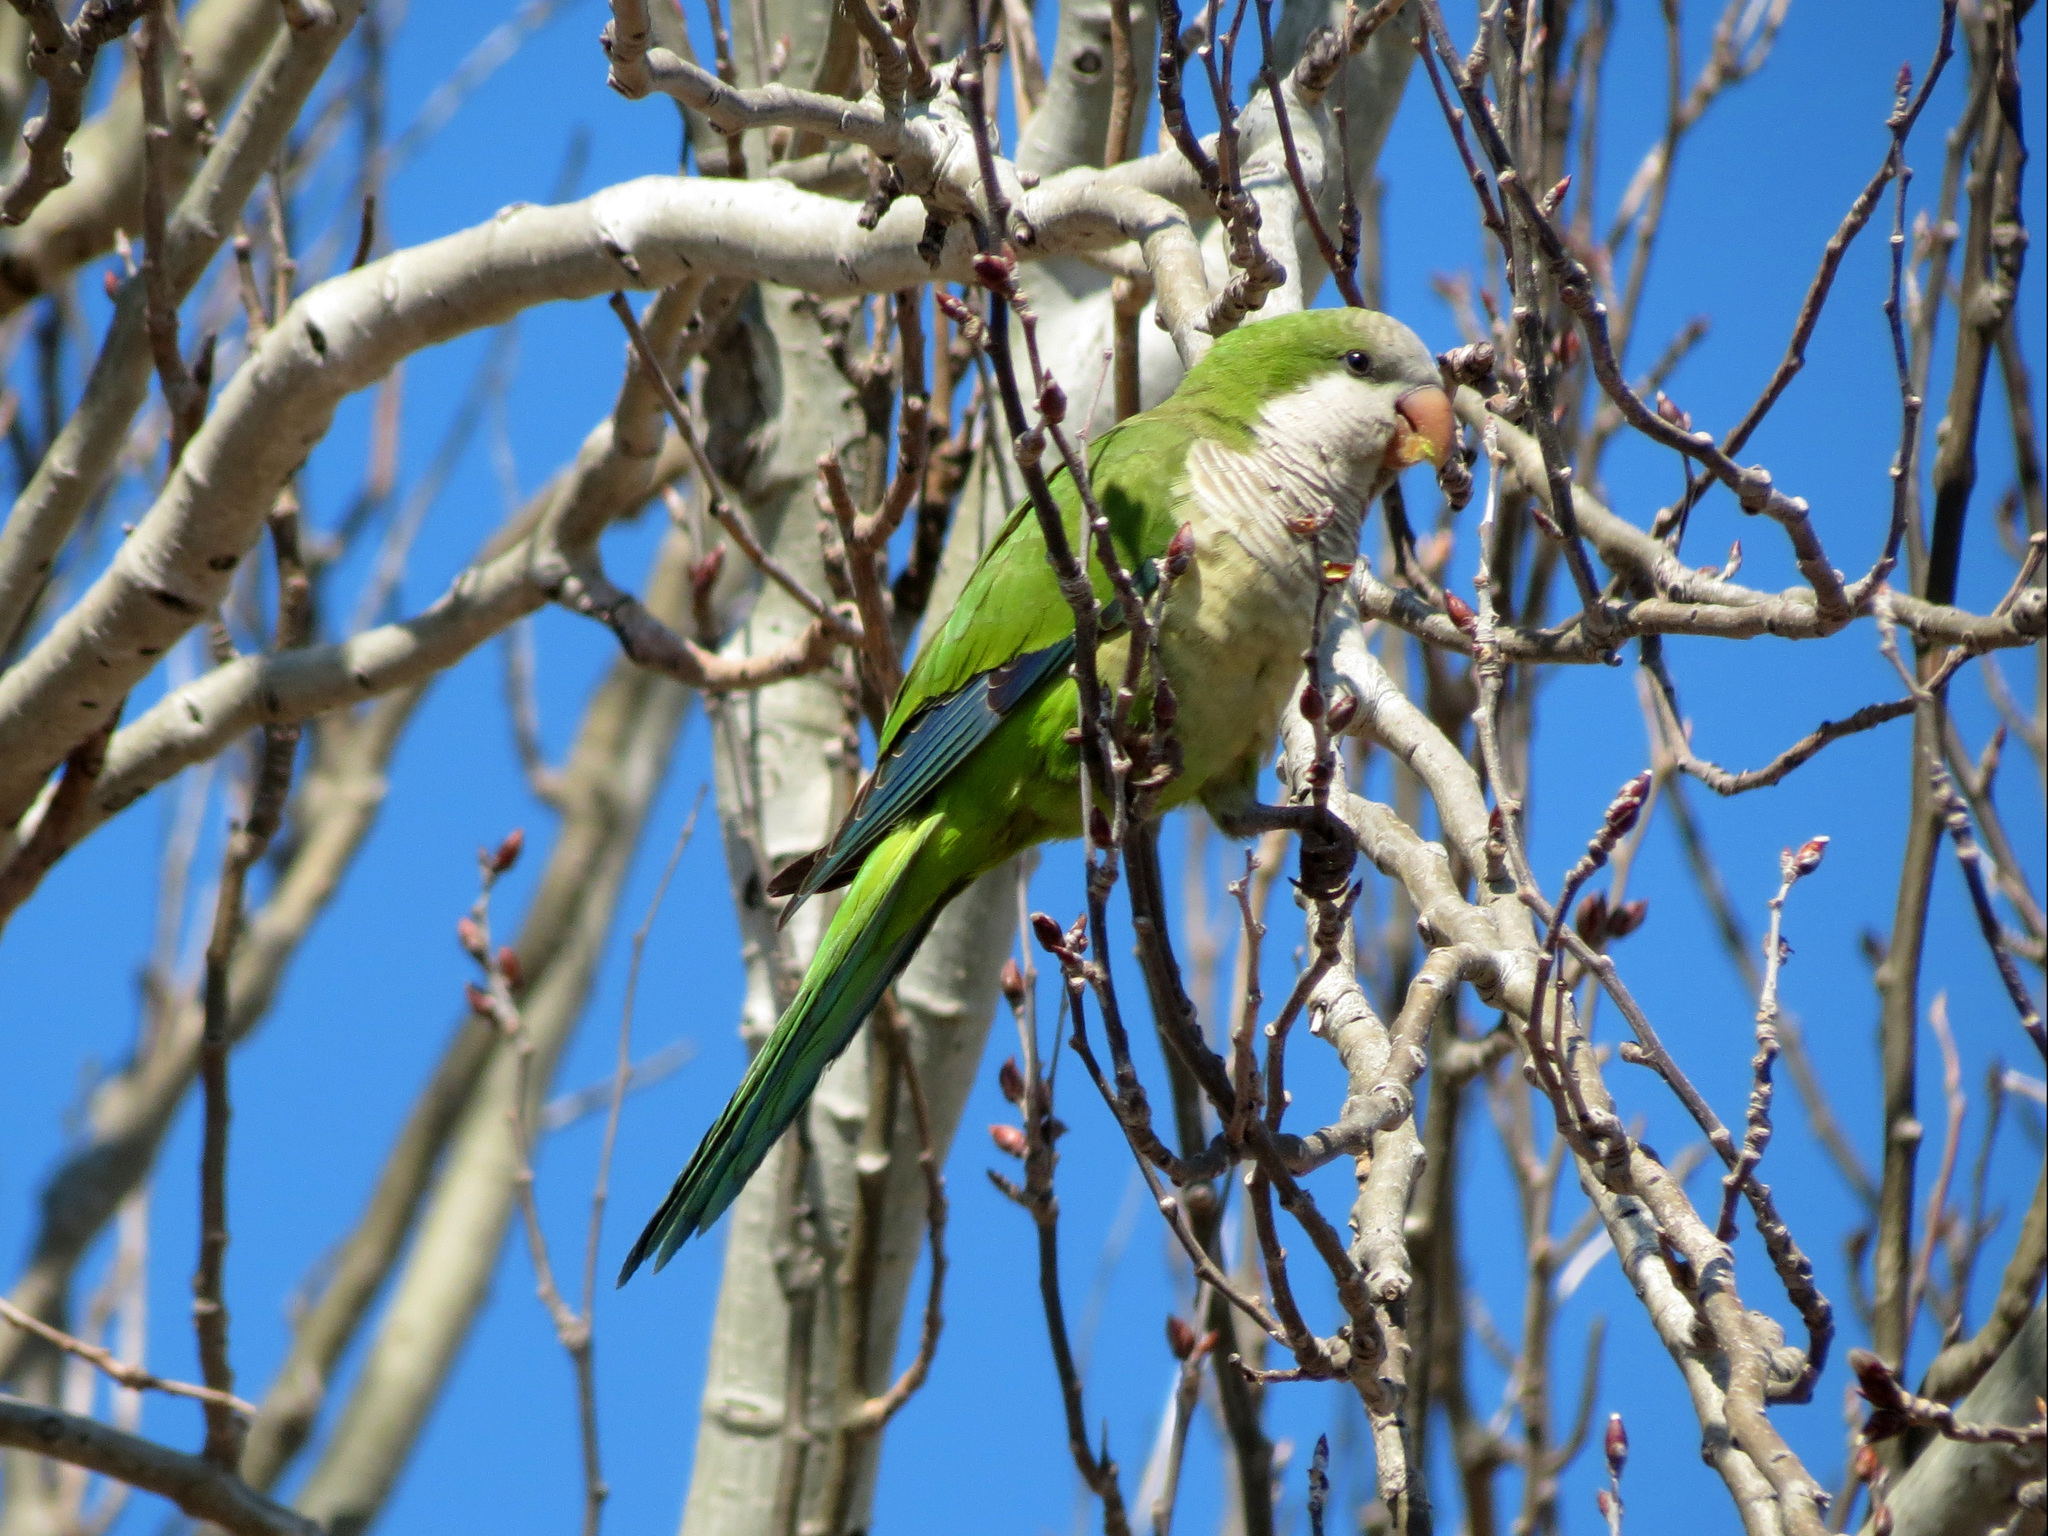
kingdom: Animalia
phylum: Chordata
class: Aves
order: Psittaciformes
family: Psittacidae
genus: Myiopsitta
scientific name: Myiopsitta monachus
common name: Monk parakeet
